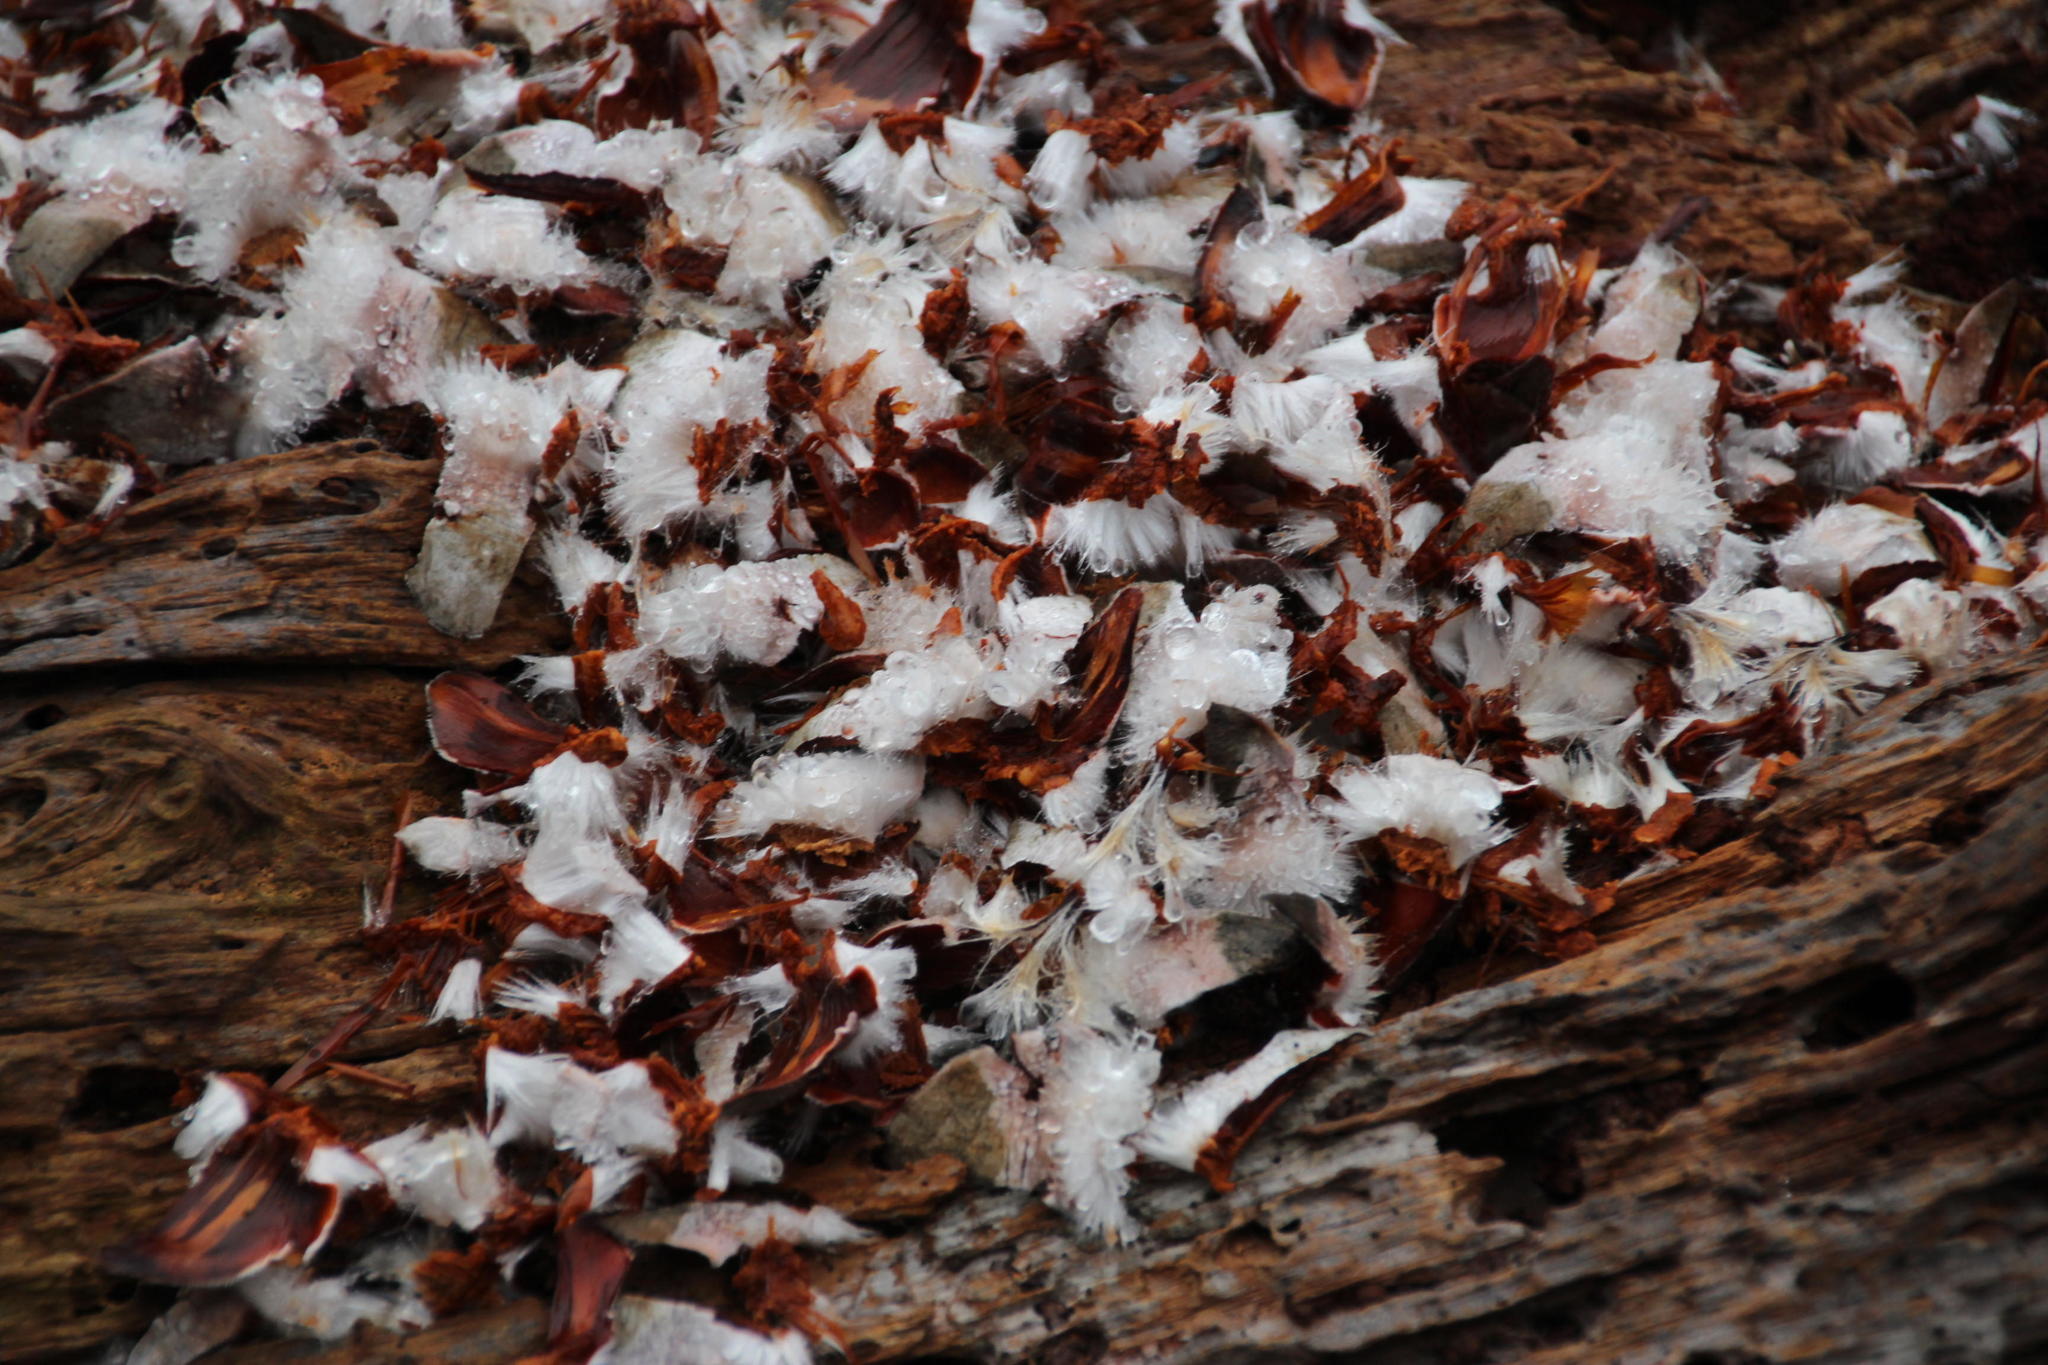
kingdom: Animalia
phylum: Chordata
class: Mammalia
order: Rodentia
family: Sciuridae
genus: Sciurus
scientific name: Sciurus carolinensis
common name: Eastern gray squirrel
